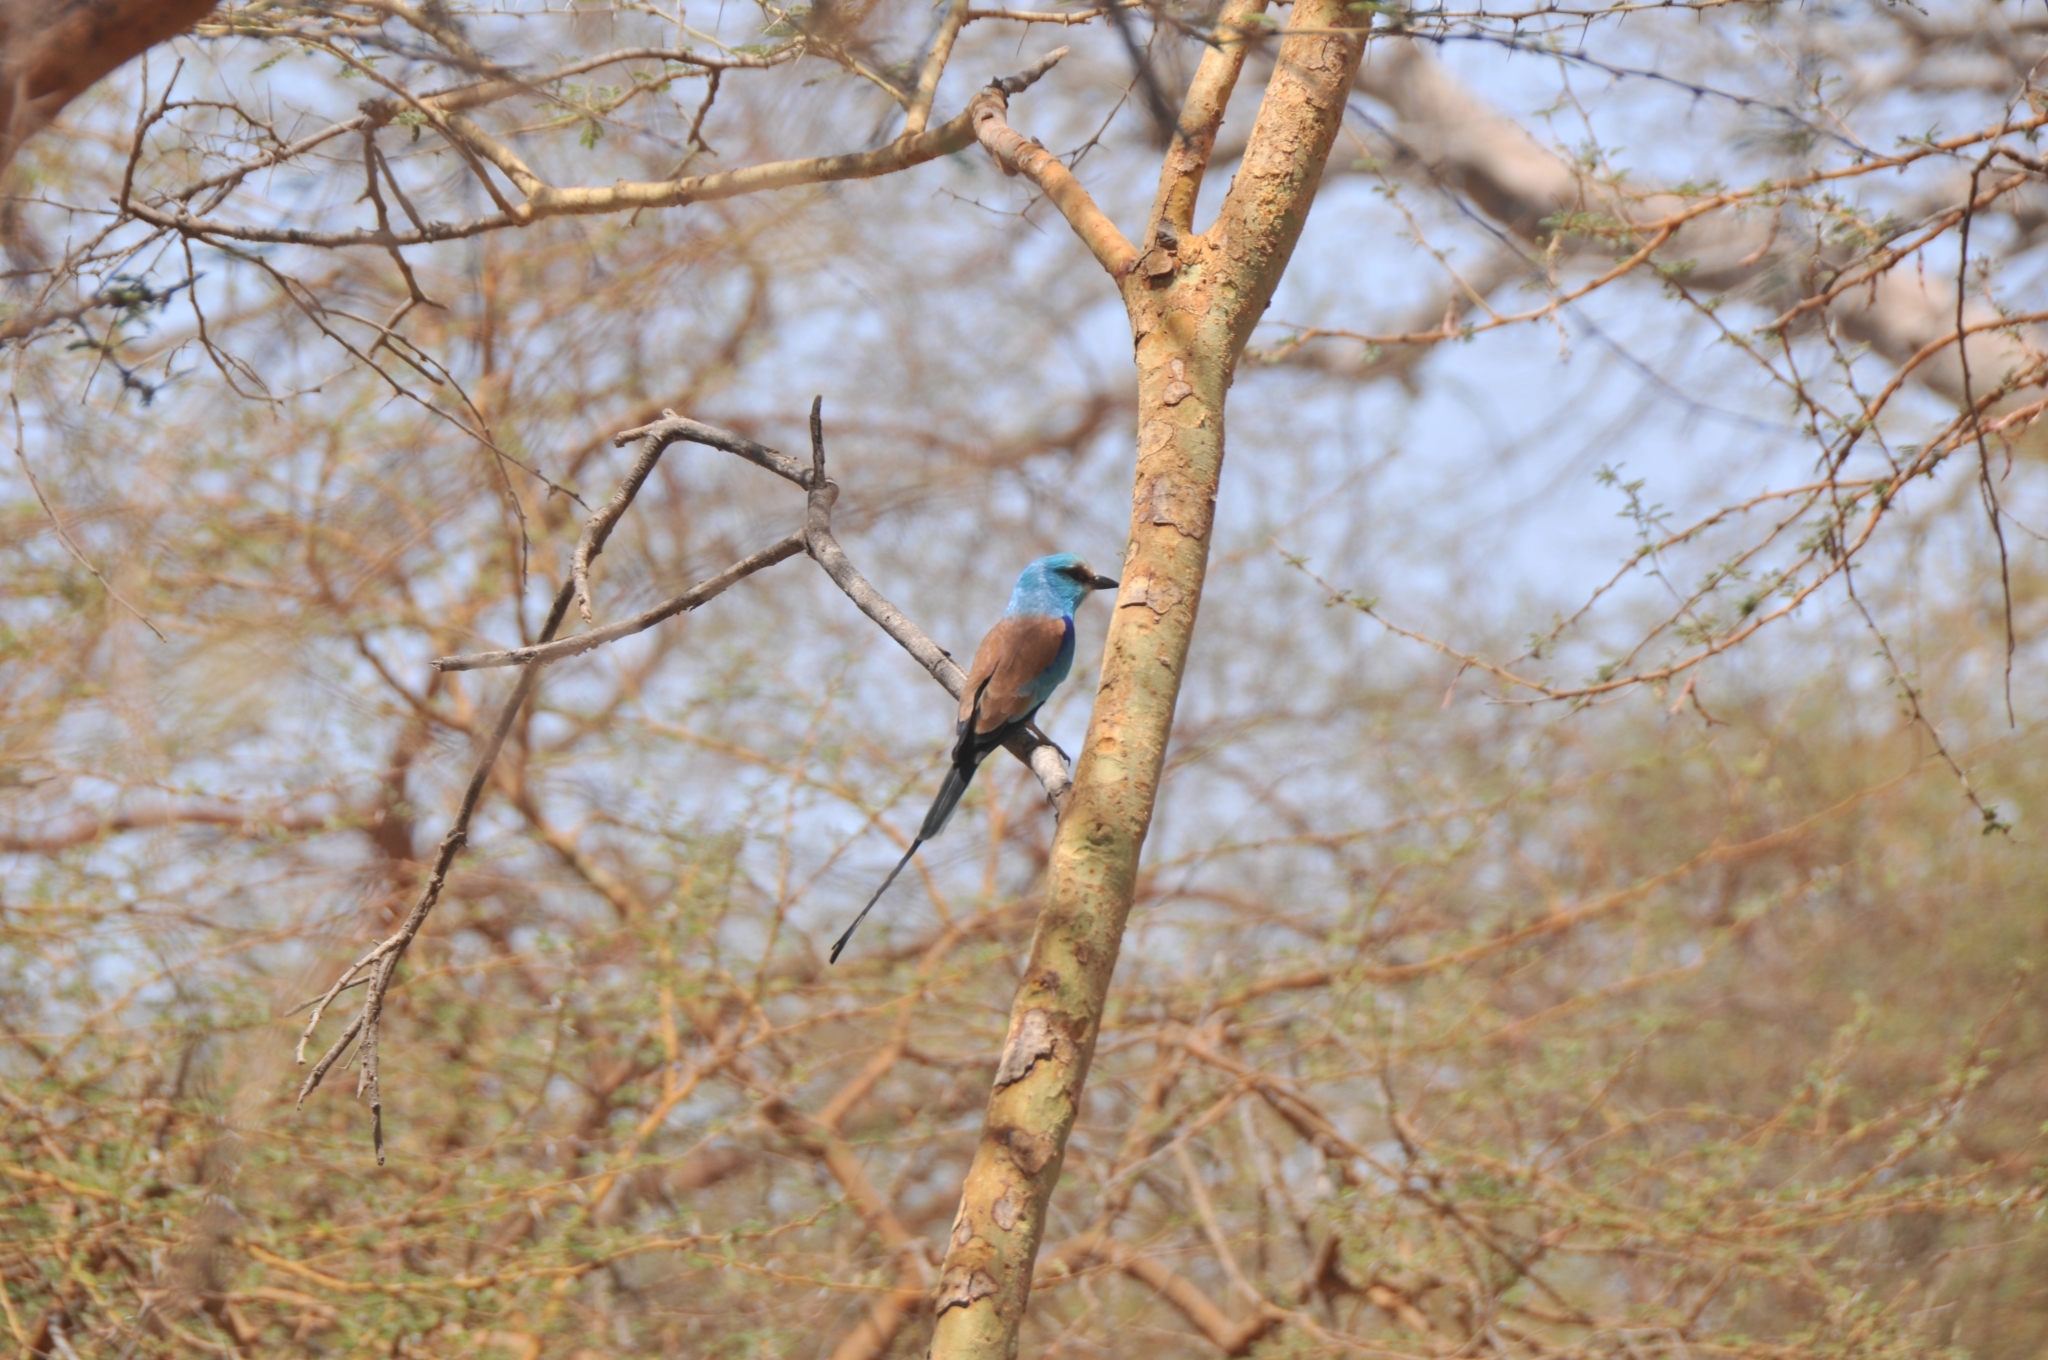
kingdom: Animalia
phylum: Chordata
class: Aves
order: Coraciiformes
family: Coraciidae
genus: Coracias
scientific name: Coracias abyssinicus
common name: Abyssinian roller
